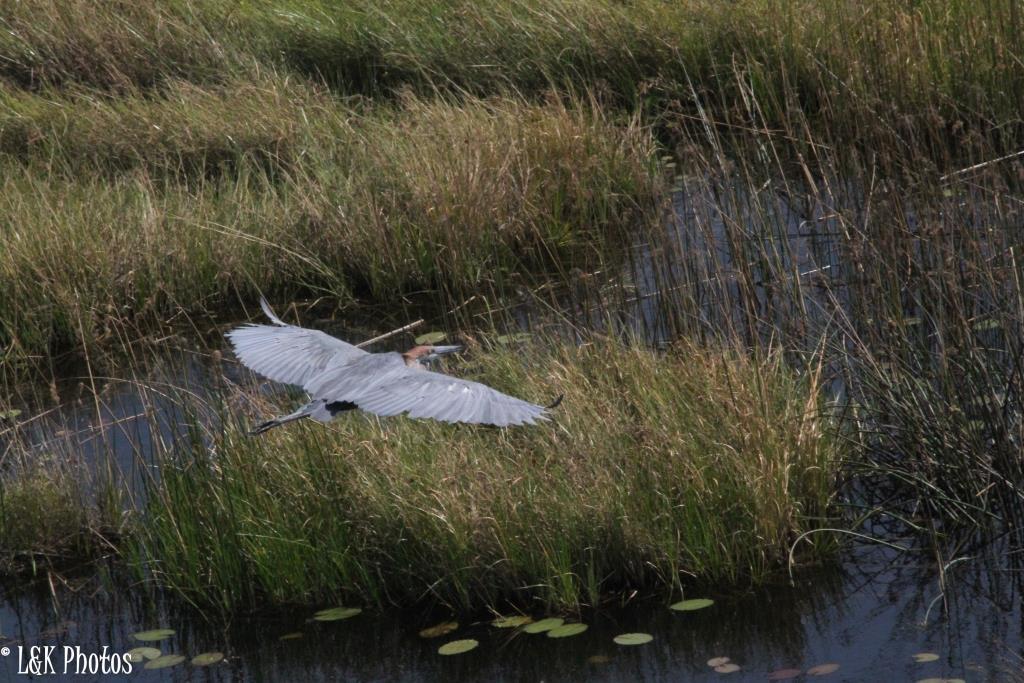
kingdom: Animalia
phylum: Chordata
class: Aves
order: Pelecaniformes
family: Ardeidae
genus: Ardea
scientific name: Ardea goliath
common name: Goliath heron
